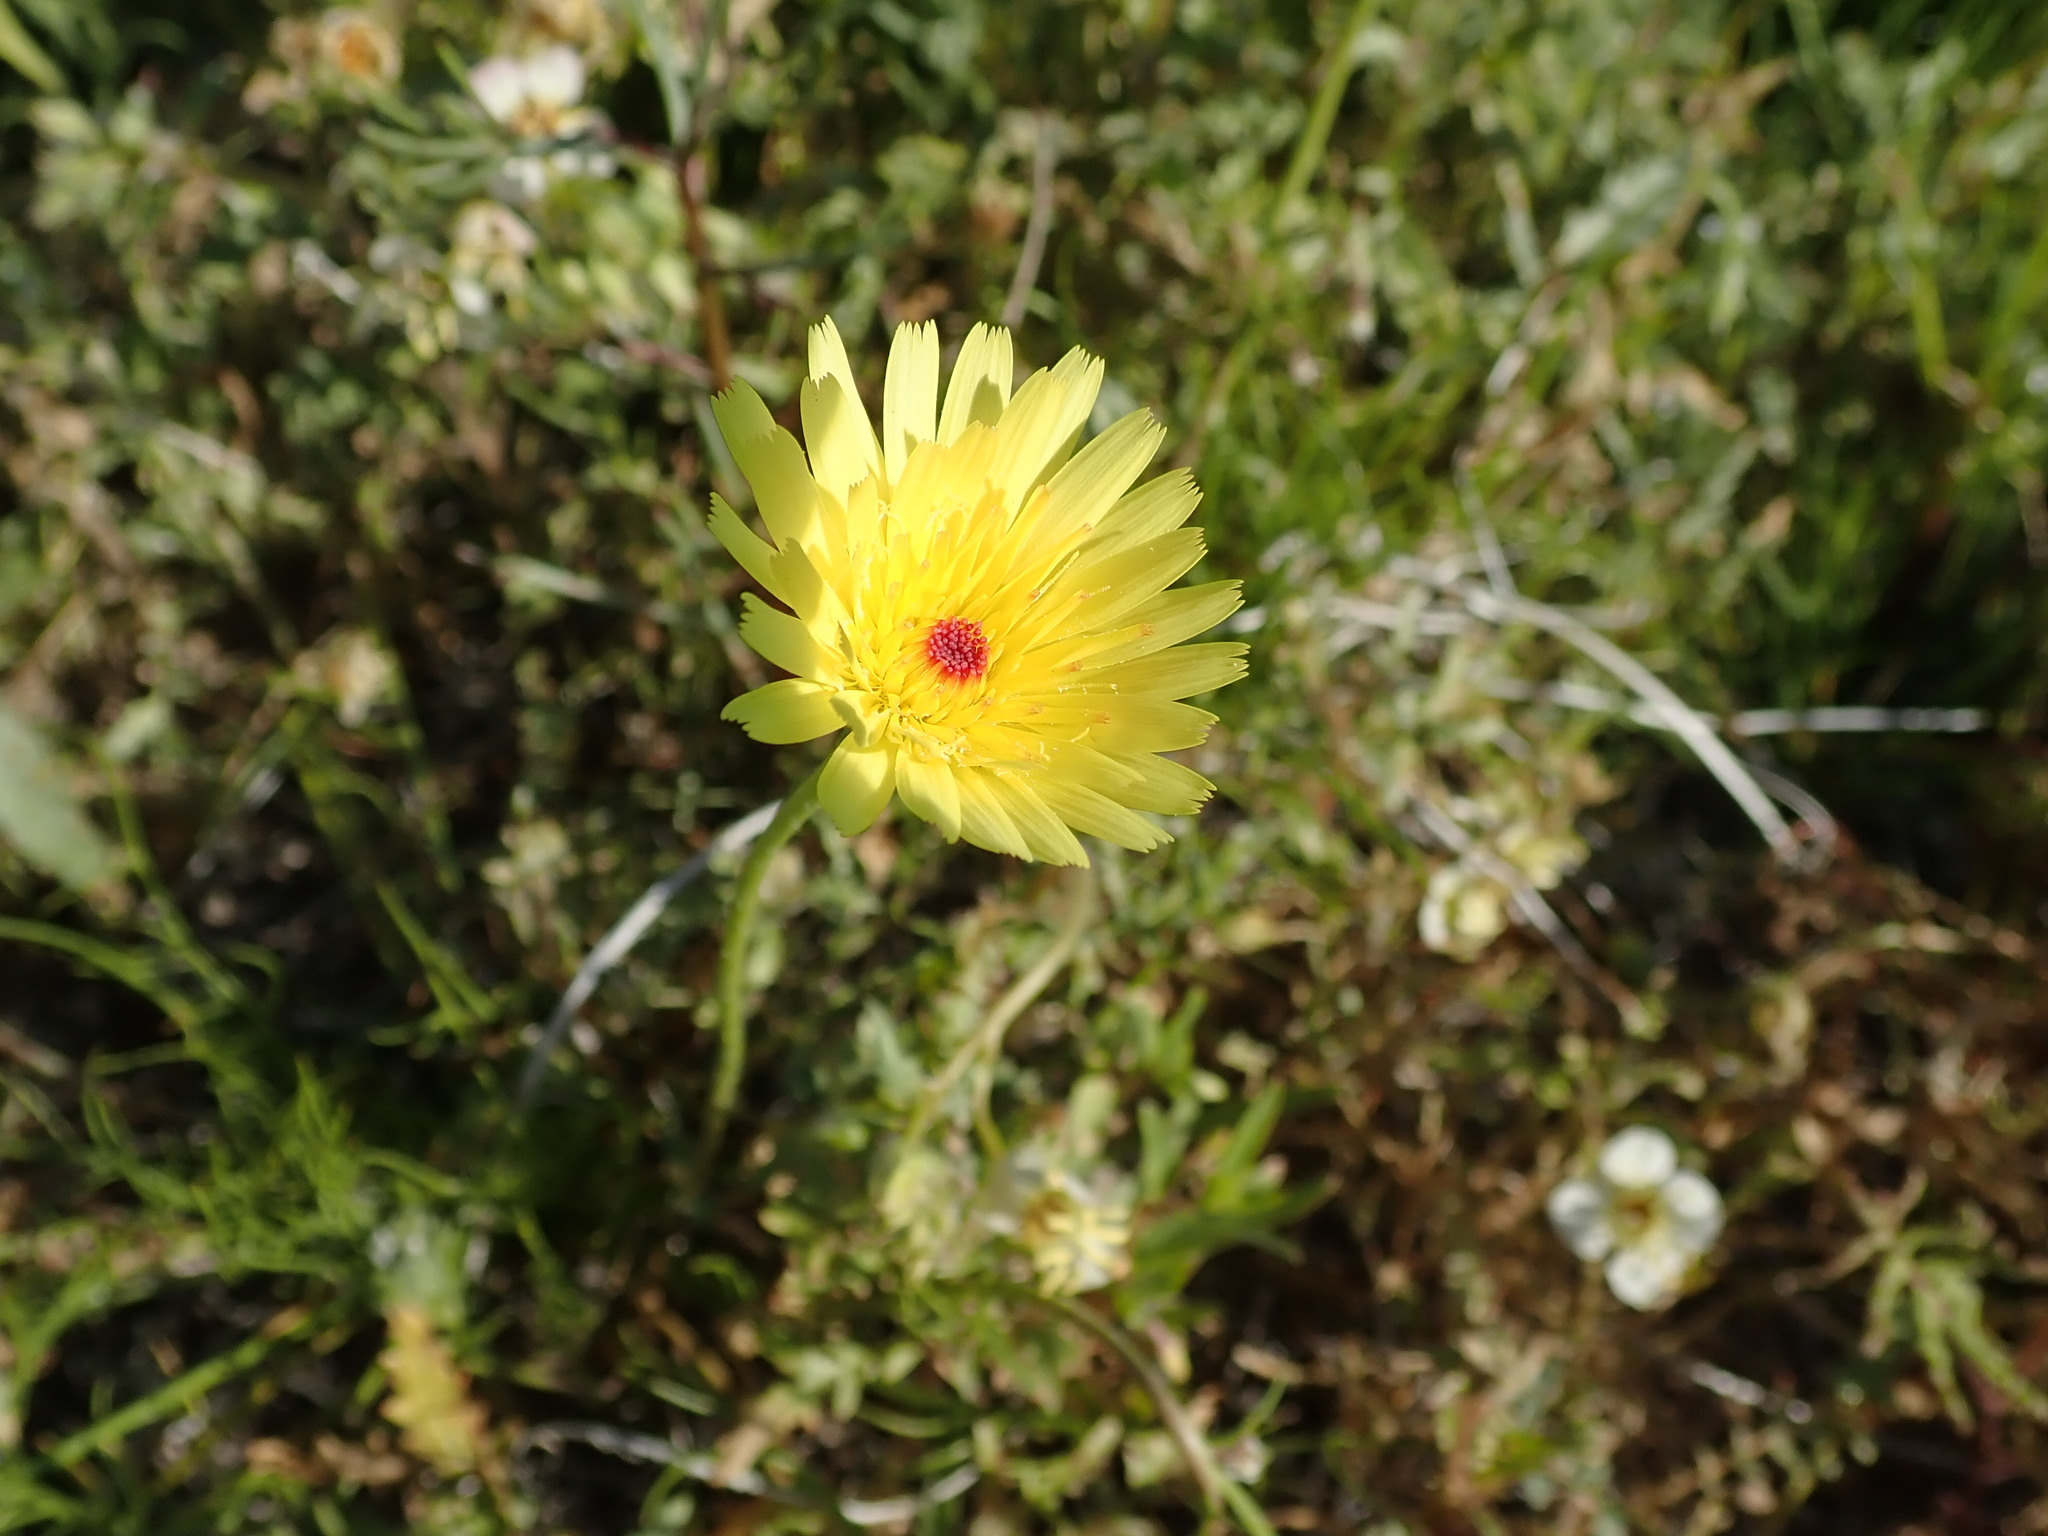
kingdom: Plantae
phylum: Tracheophyta
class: Magnoliopsida
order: Asterales
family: Asteraceae
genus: Malacothrix
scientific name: Malacothrix glabrata
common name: Smooth desert-dandelion
